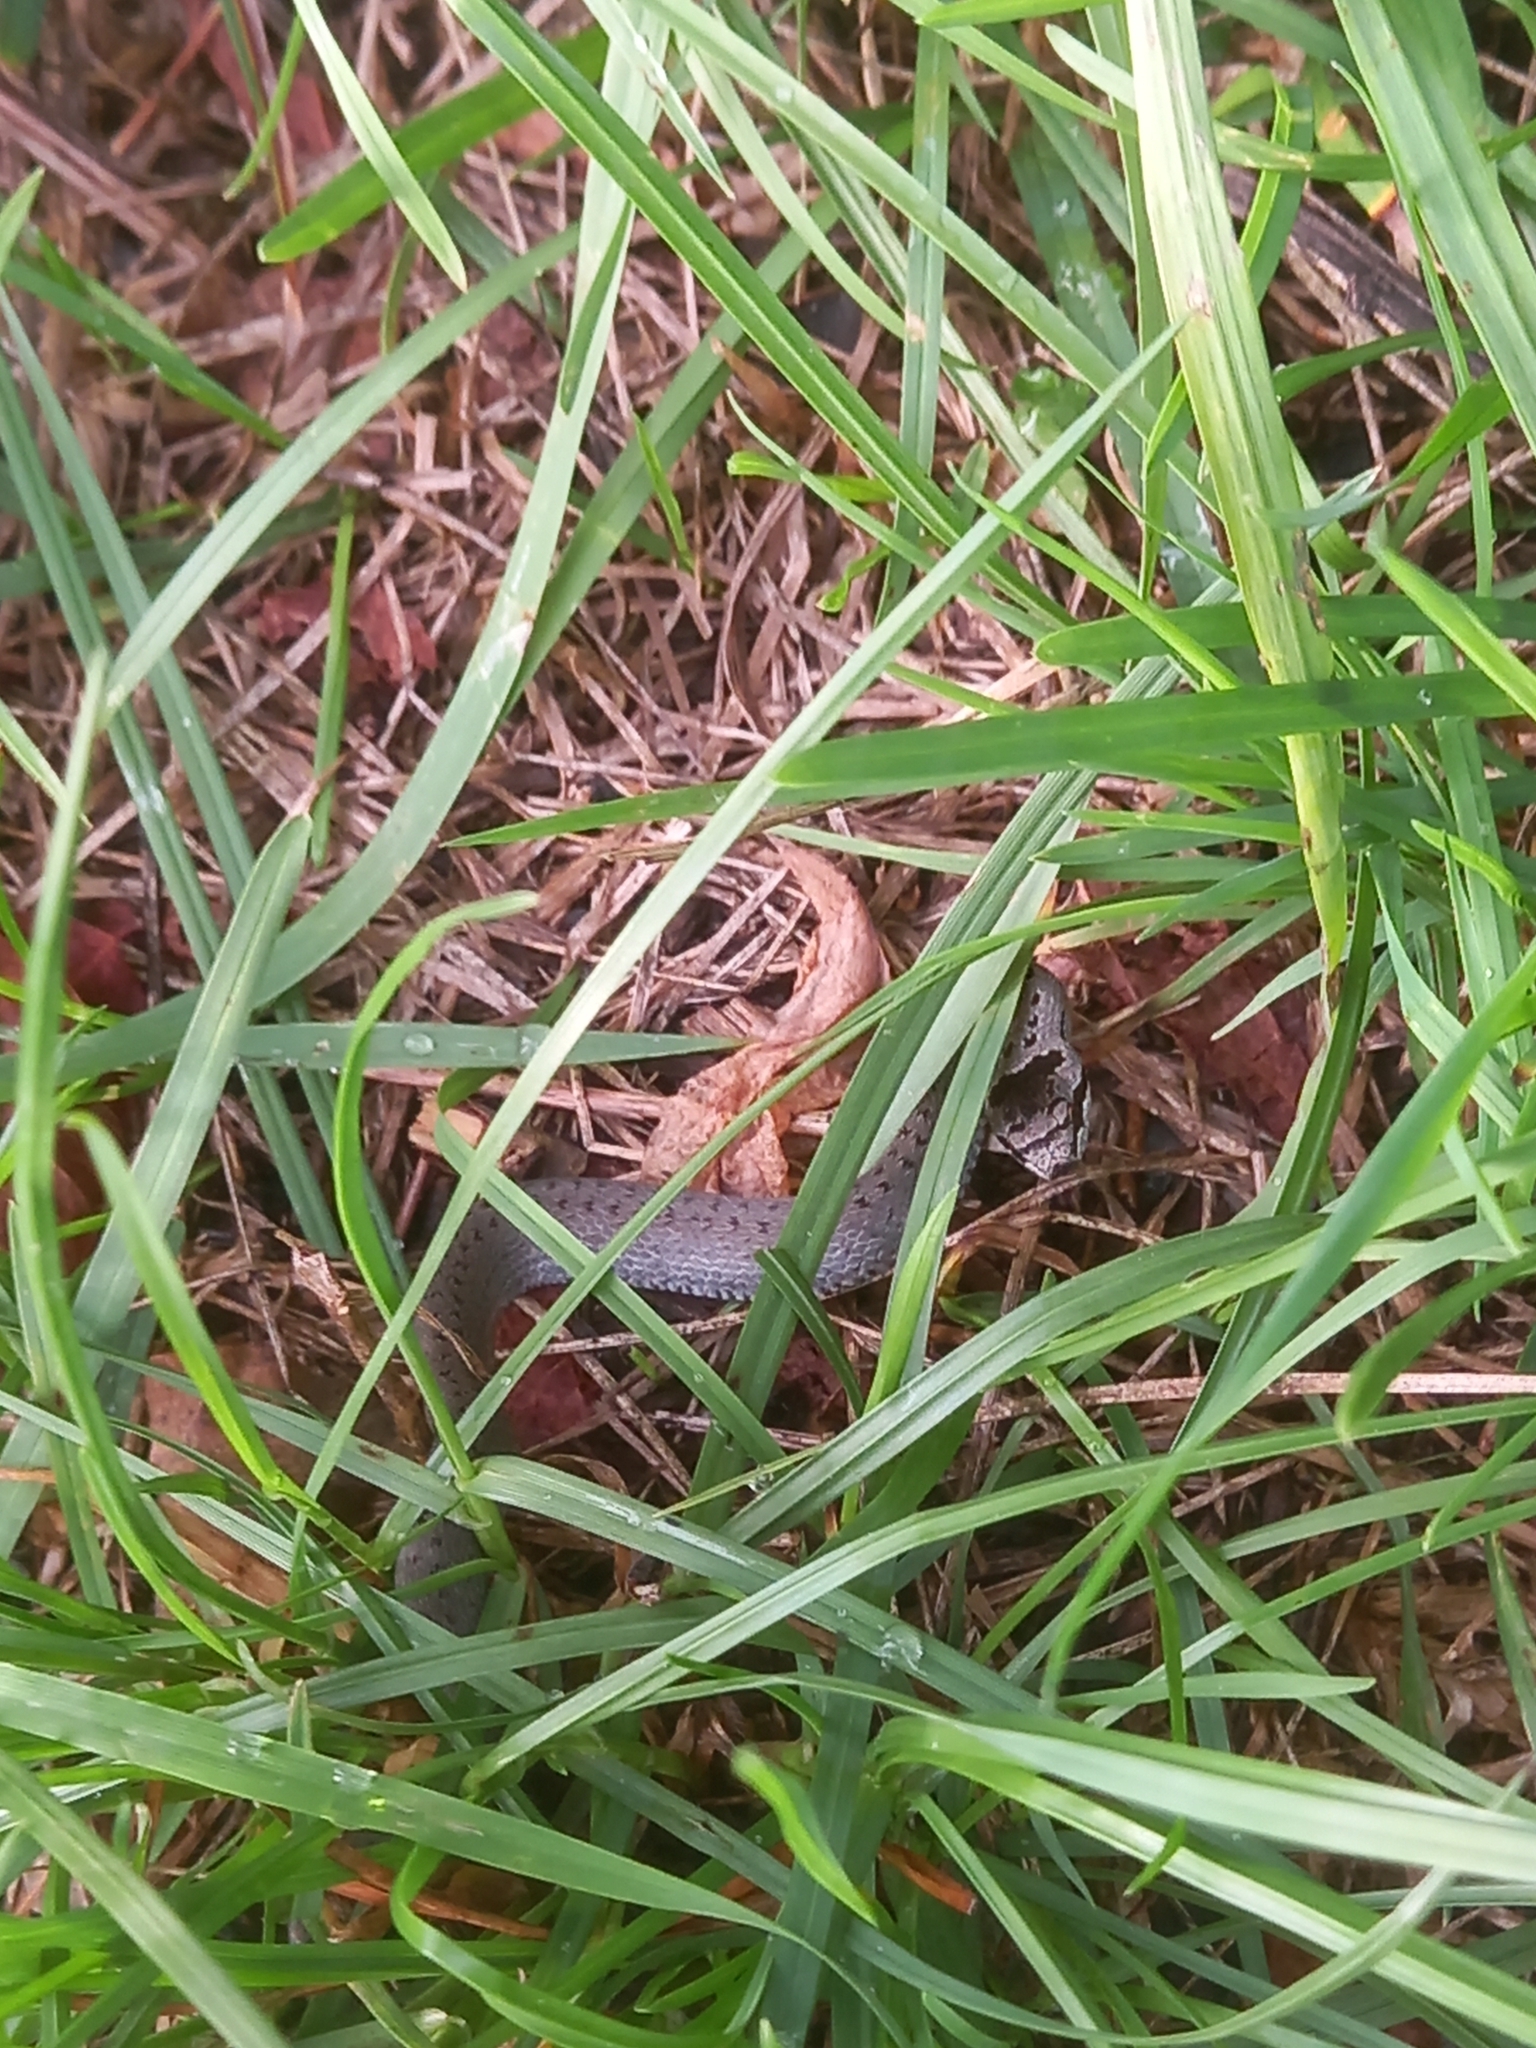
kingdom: Animalia
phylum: Chordata
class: Squamata
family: Colubridae
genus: Coronella
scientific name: Coronella austriaca
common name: Smooth snake
